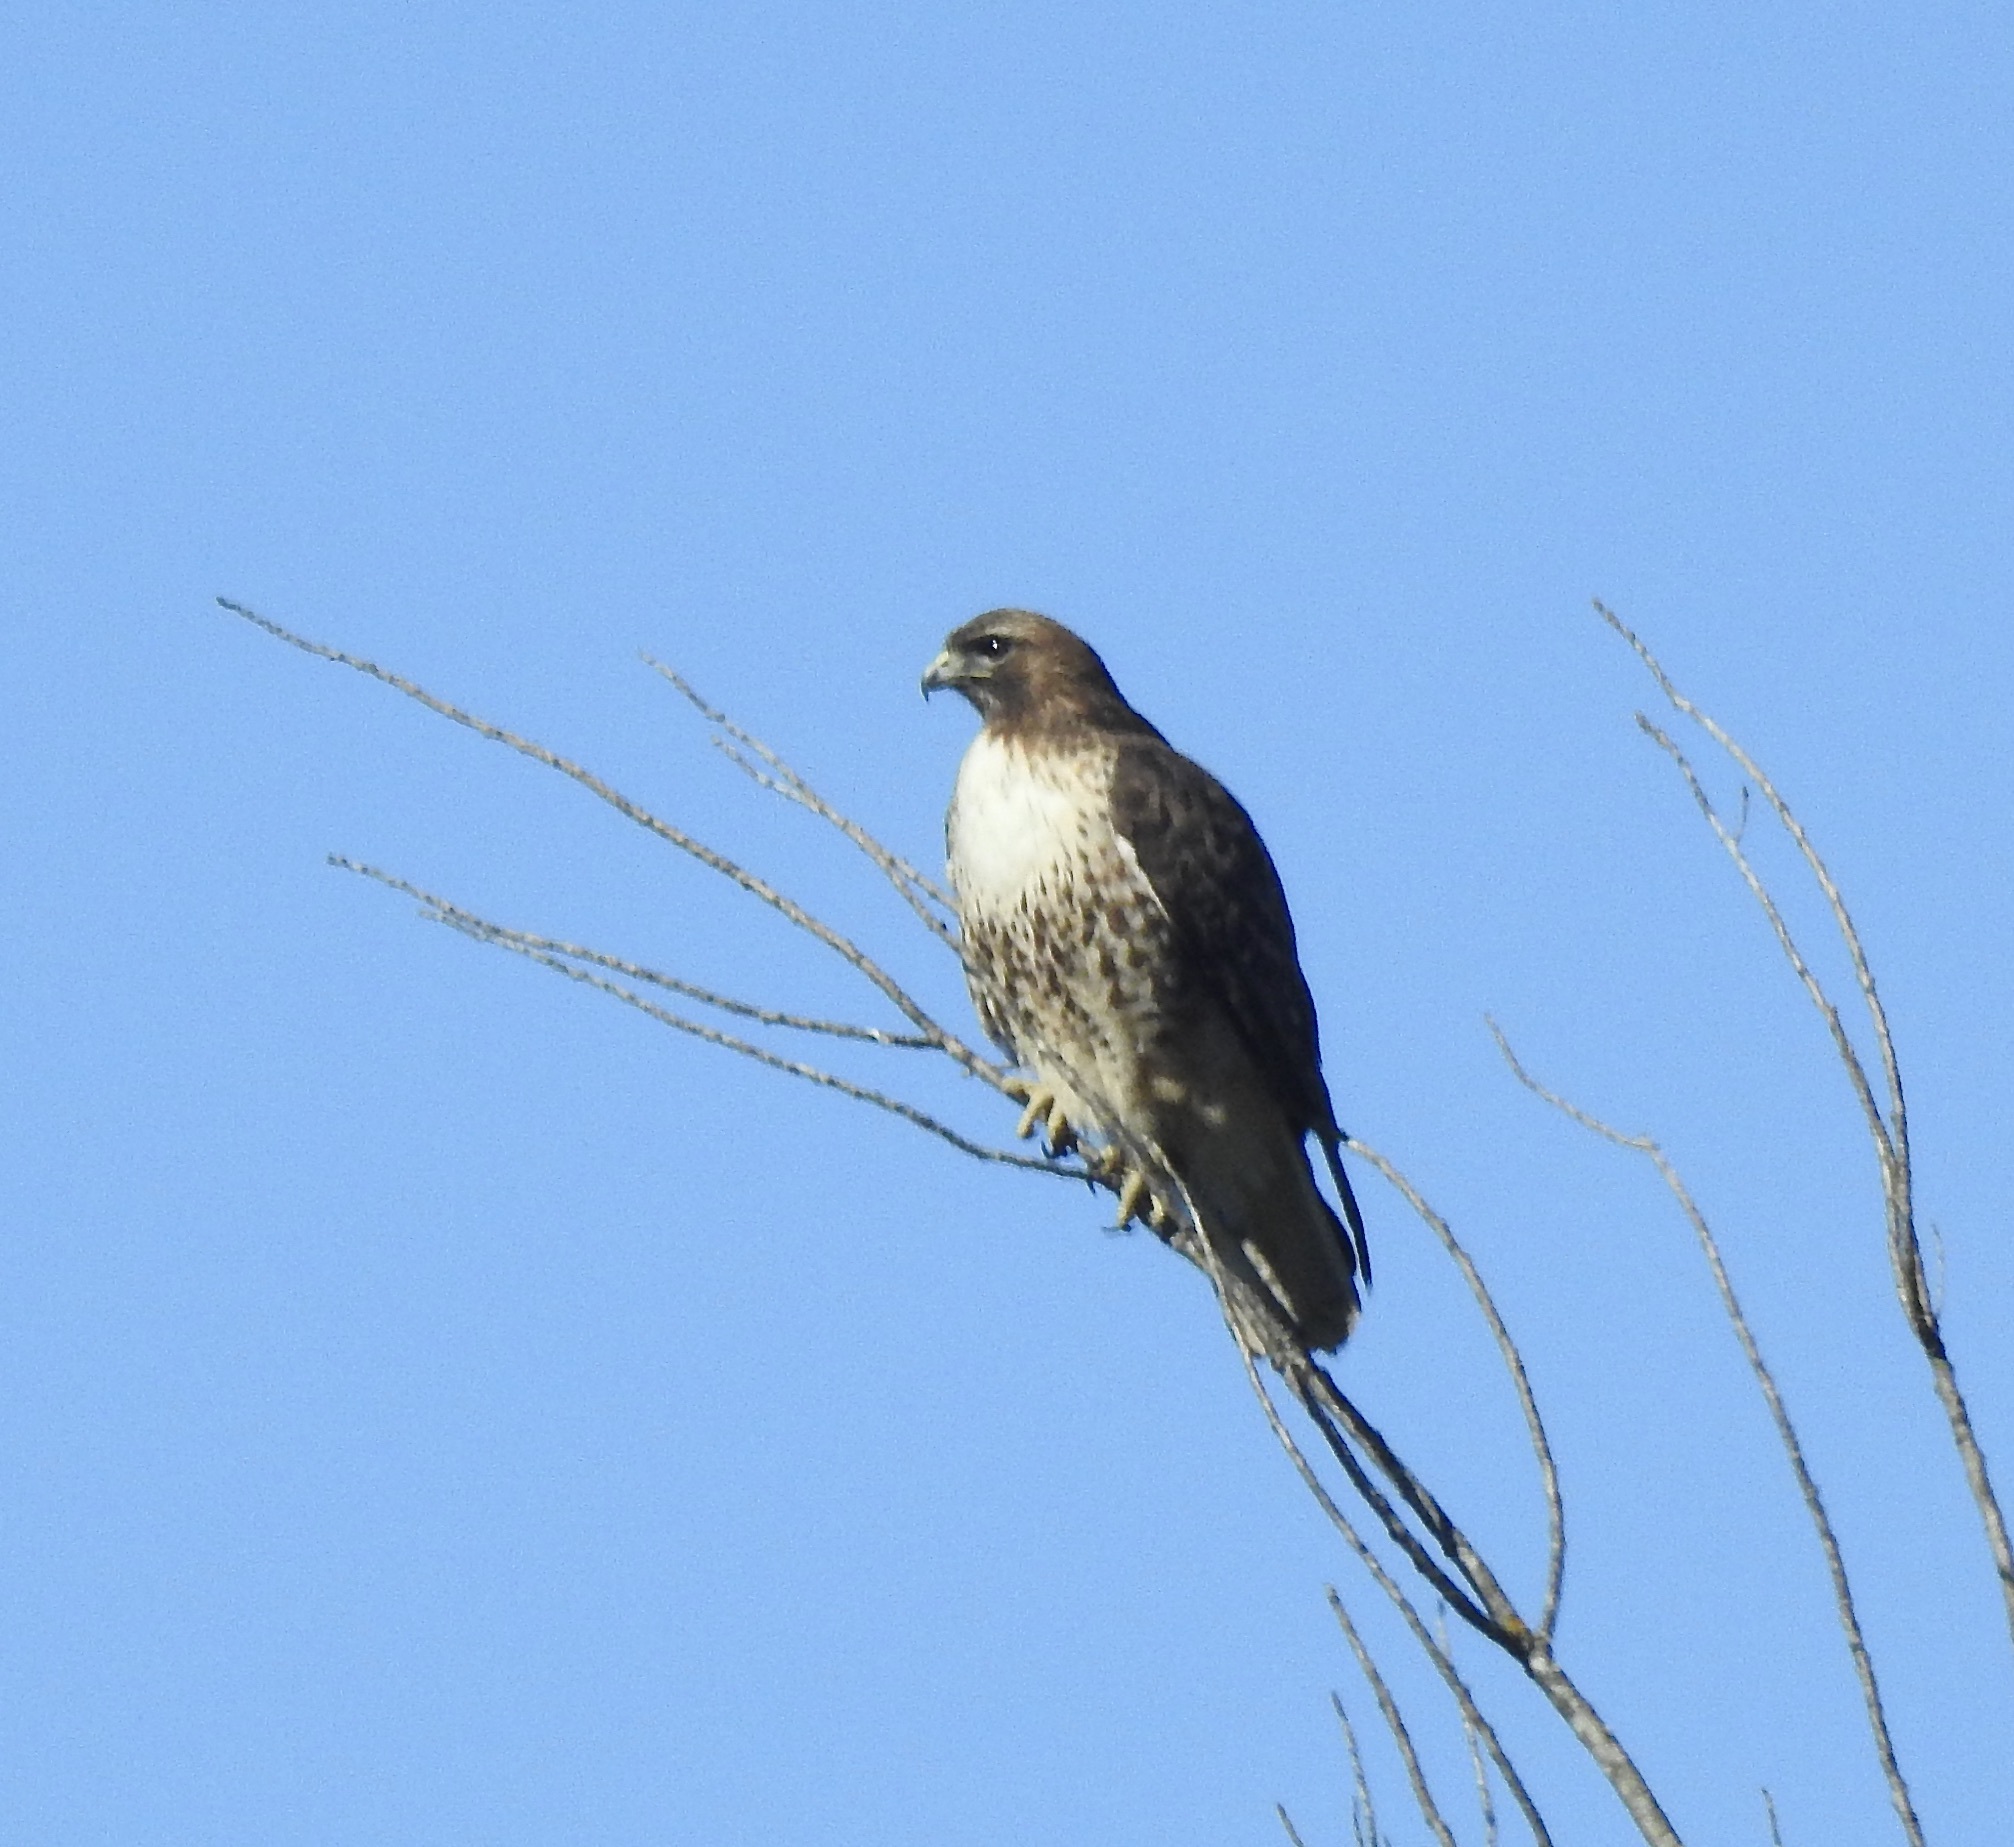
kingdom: Animalia
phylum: Chordata
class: Aves
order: Accipitriformes
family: Accipitridae
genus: Buteo
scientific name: Buteo jamaicensis
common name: Red-tailed hawk
